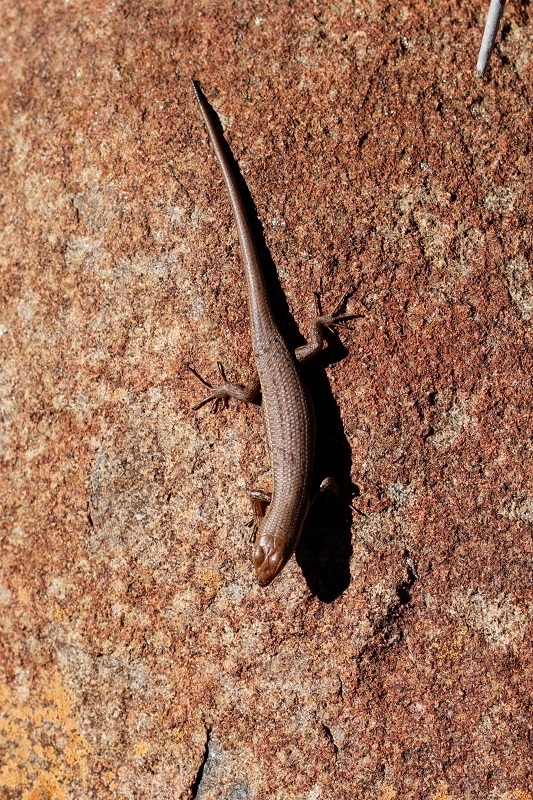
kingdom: Animalia
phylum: Chordata
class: Squamata
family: Scincidae
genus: Trachylepis
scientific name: Trachylepis variegata
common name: Variegated skink
